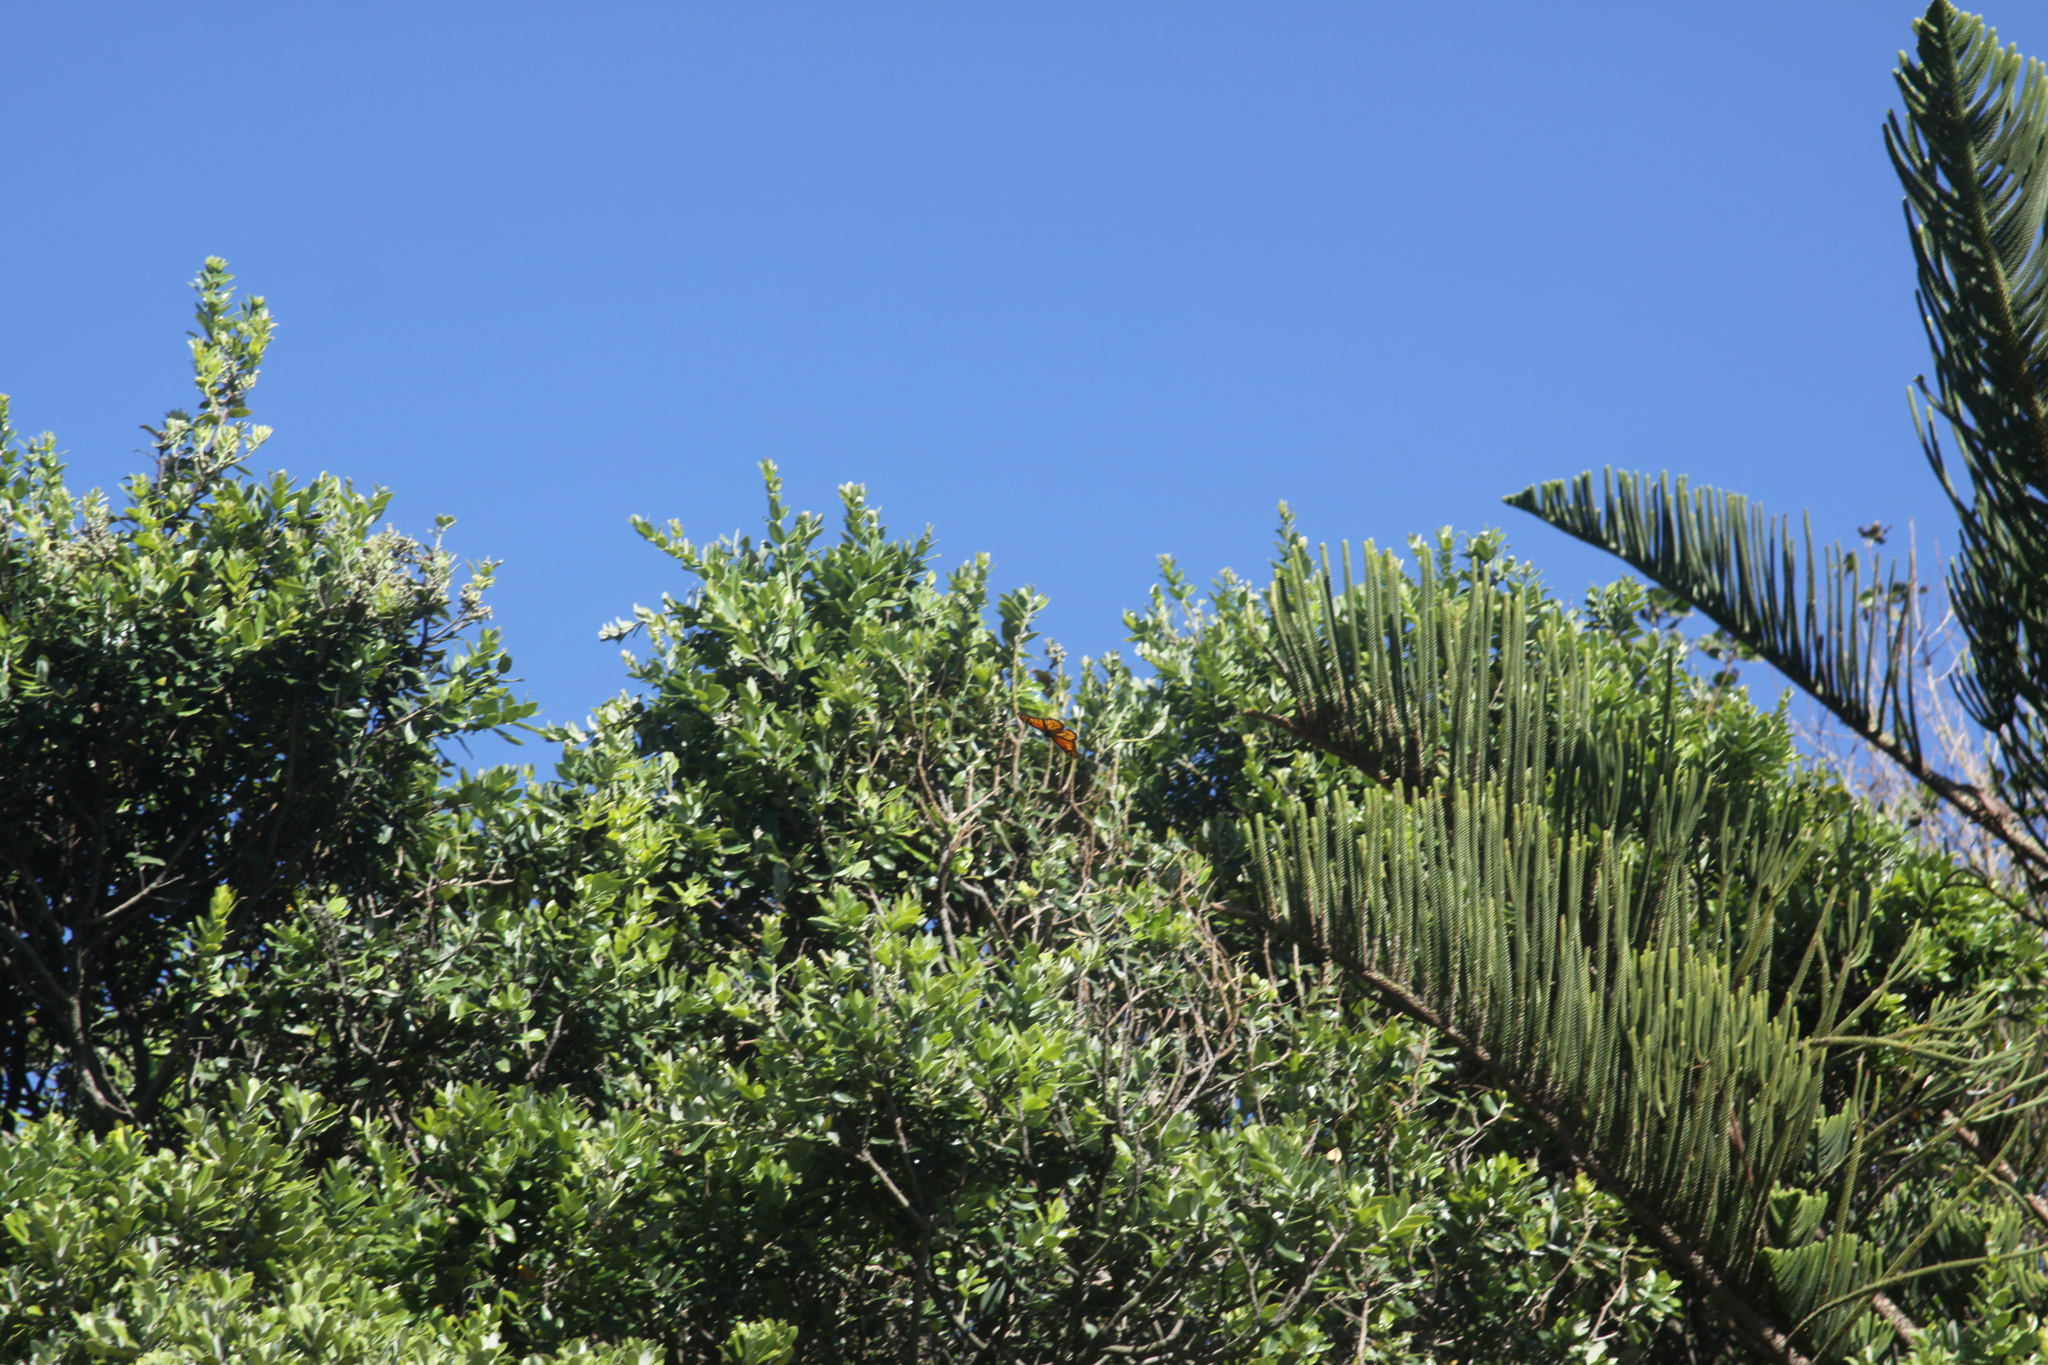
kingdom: Animalia
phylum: Arthropoda
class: Insecta
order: Lepidoptera
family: Nymphalidae
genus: Danaus
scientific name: Danaus plexippus
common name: Monarch
